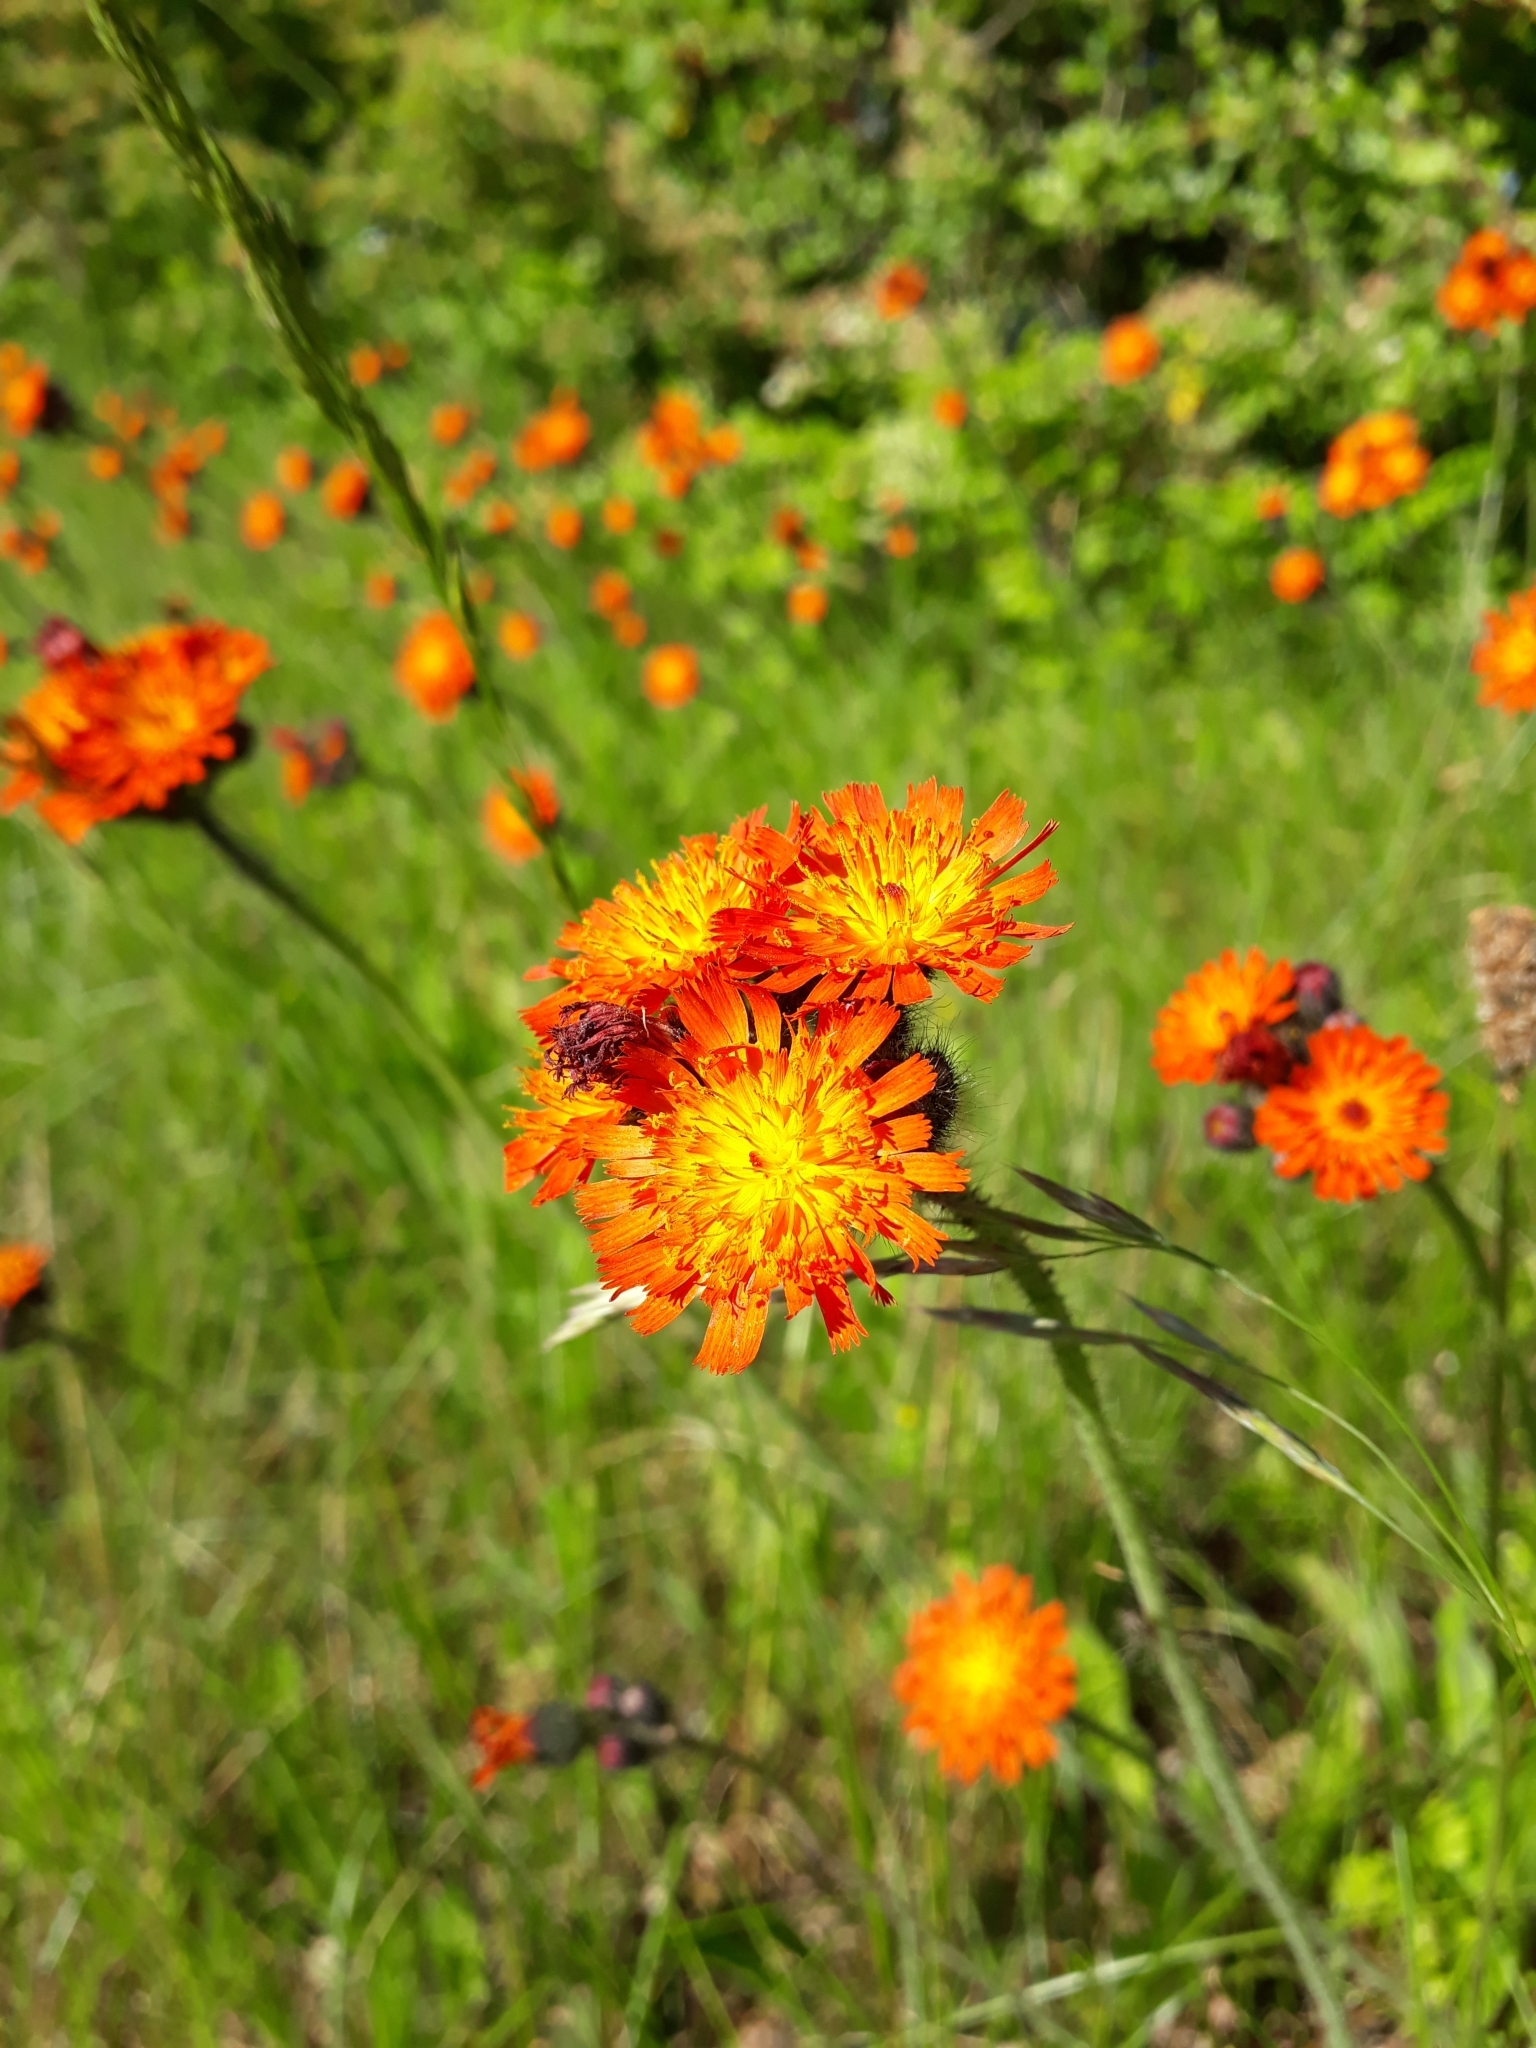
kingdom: Plantae
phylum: Tracheophyta
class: Magnoliopsida
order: Asterales
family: Asteraceae
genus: Pilosella
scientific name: Pilosella aurantiaca
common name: Fox-and-cubs
